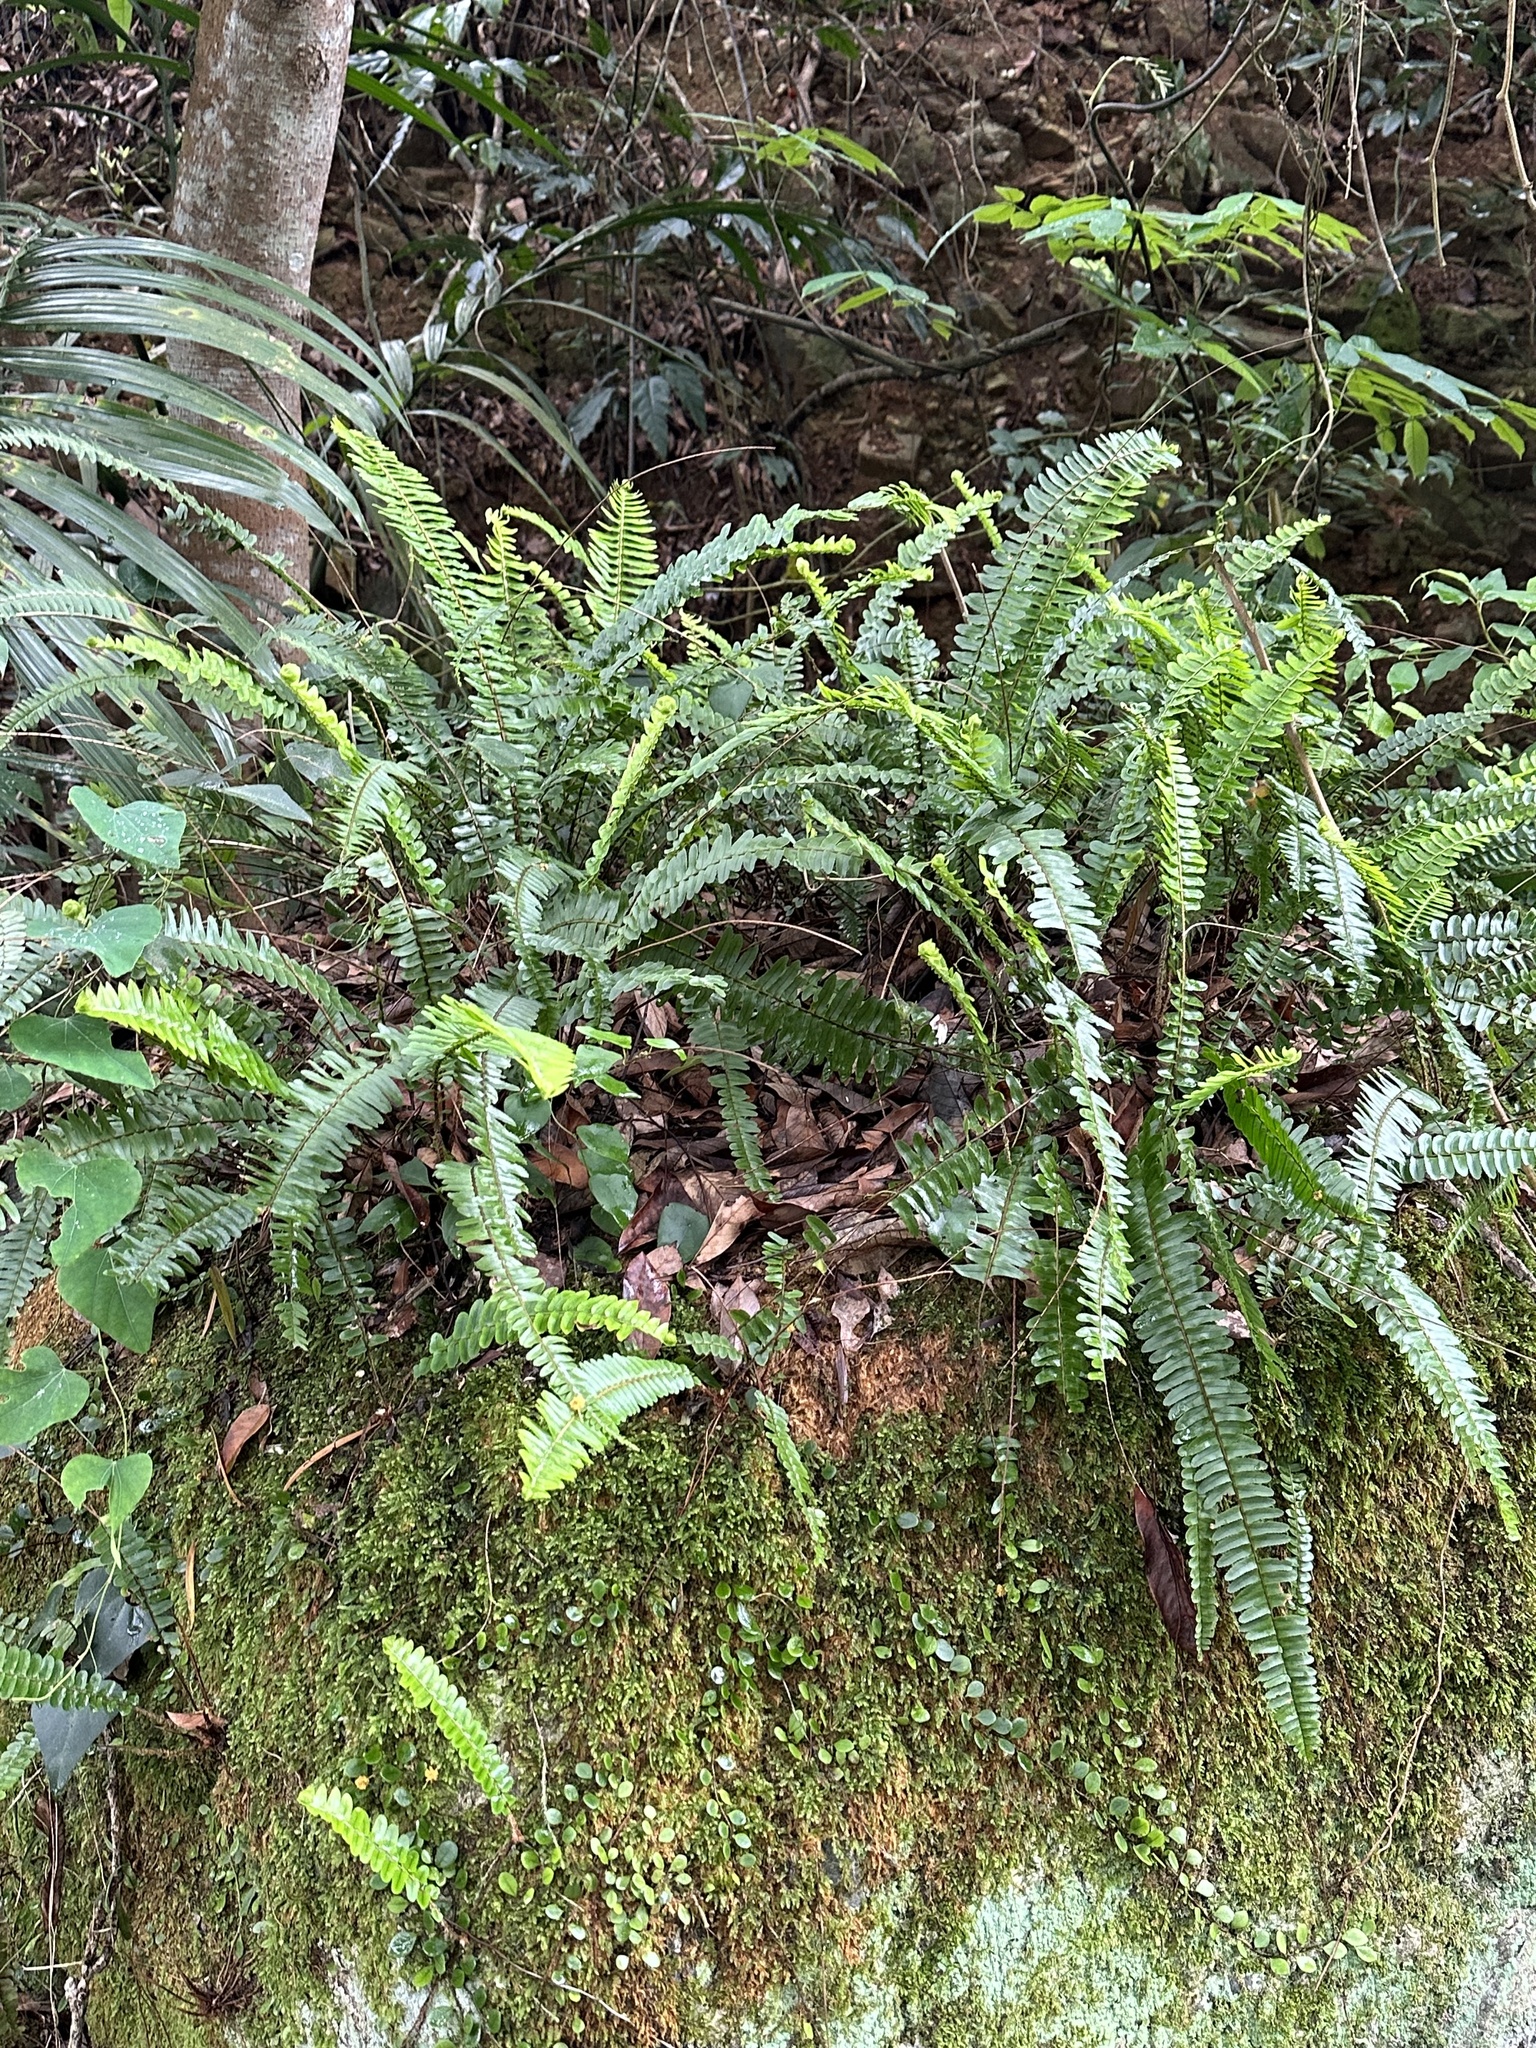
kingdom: Plantae
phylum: Tracheophyta
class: Polypodiopsida
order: Polypodiales
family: Nephrolepidaceae
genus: Nephrolepis
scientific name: Nephrolepis cordifolia
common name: Narrow swordfern
